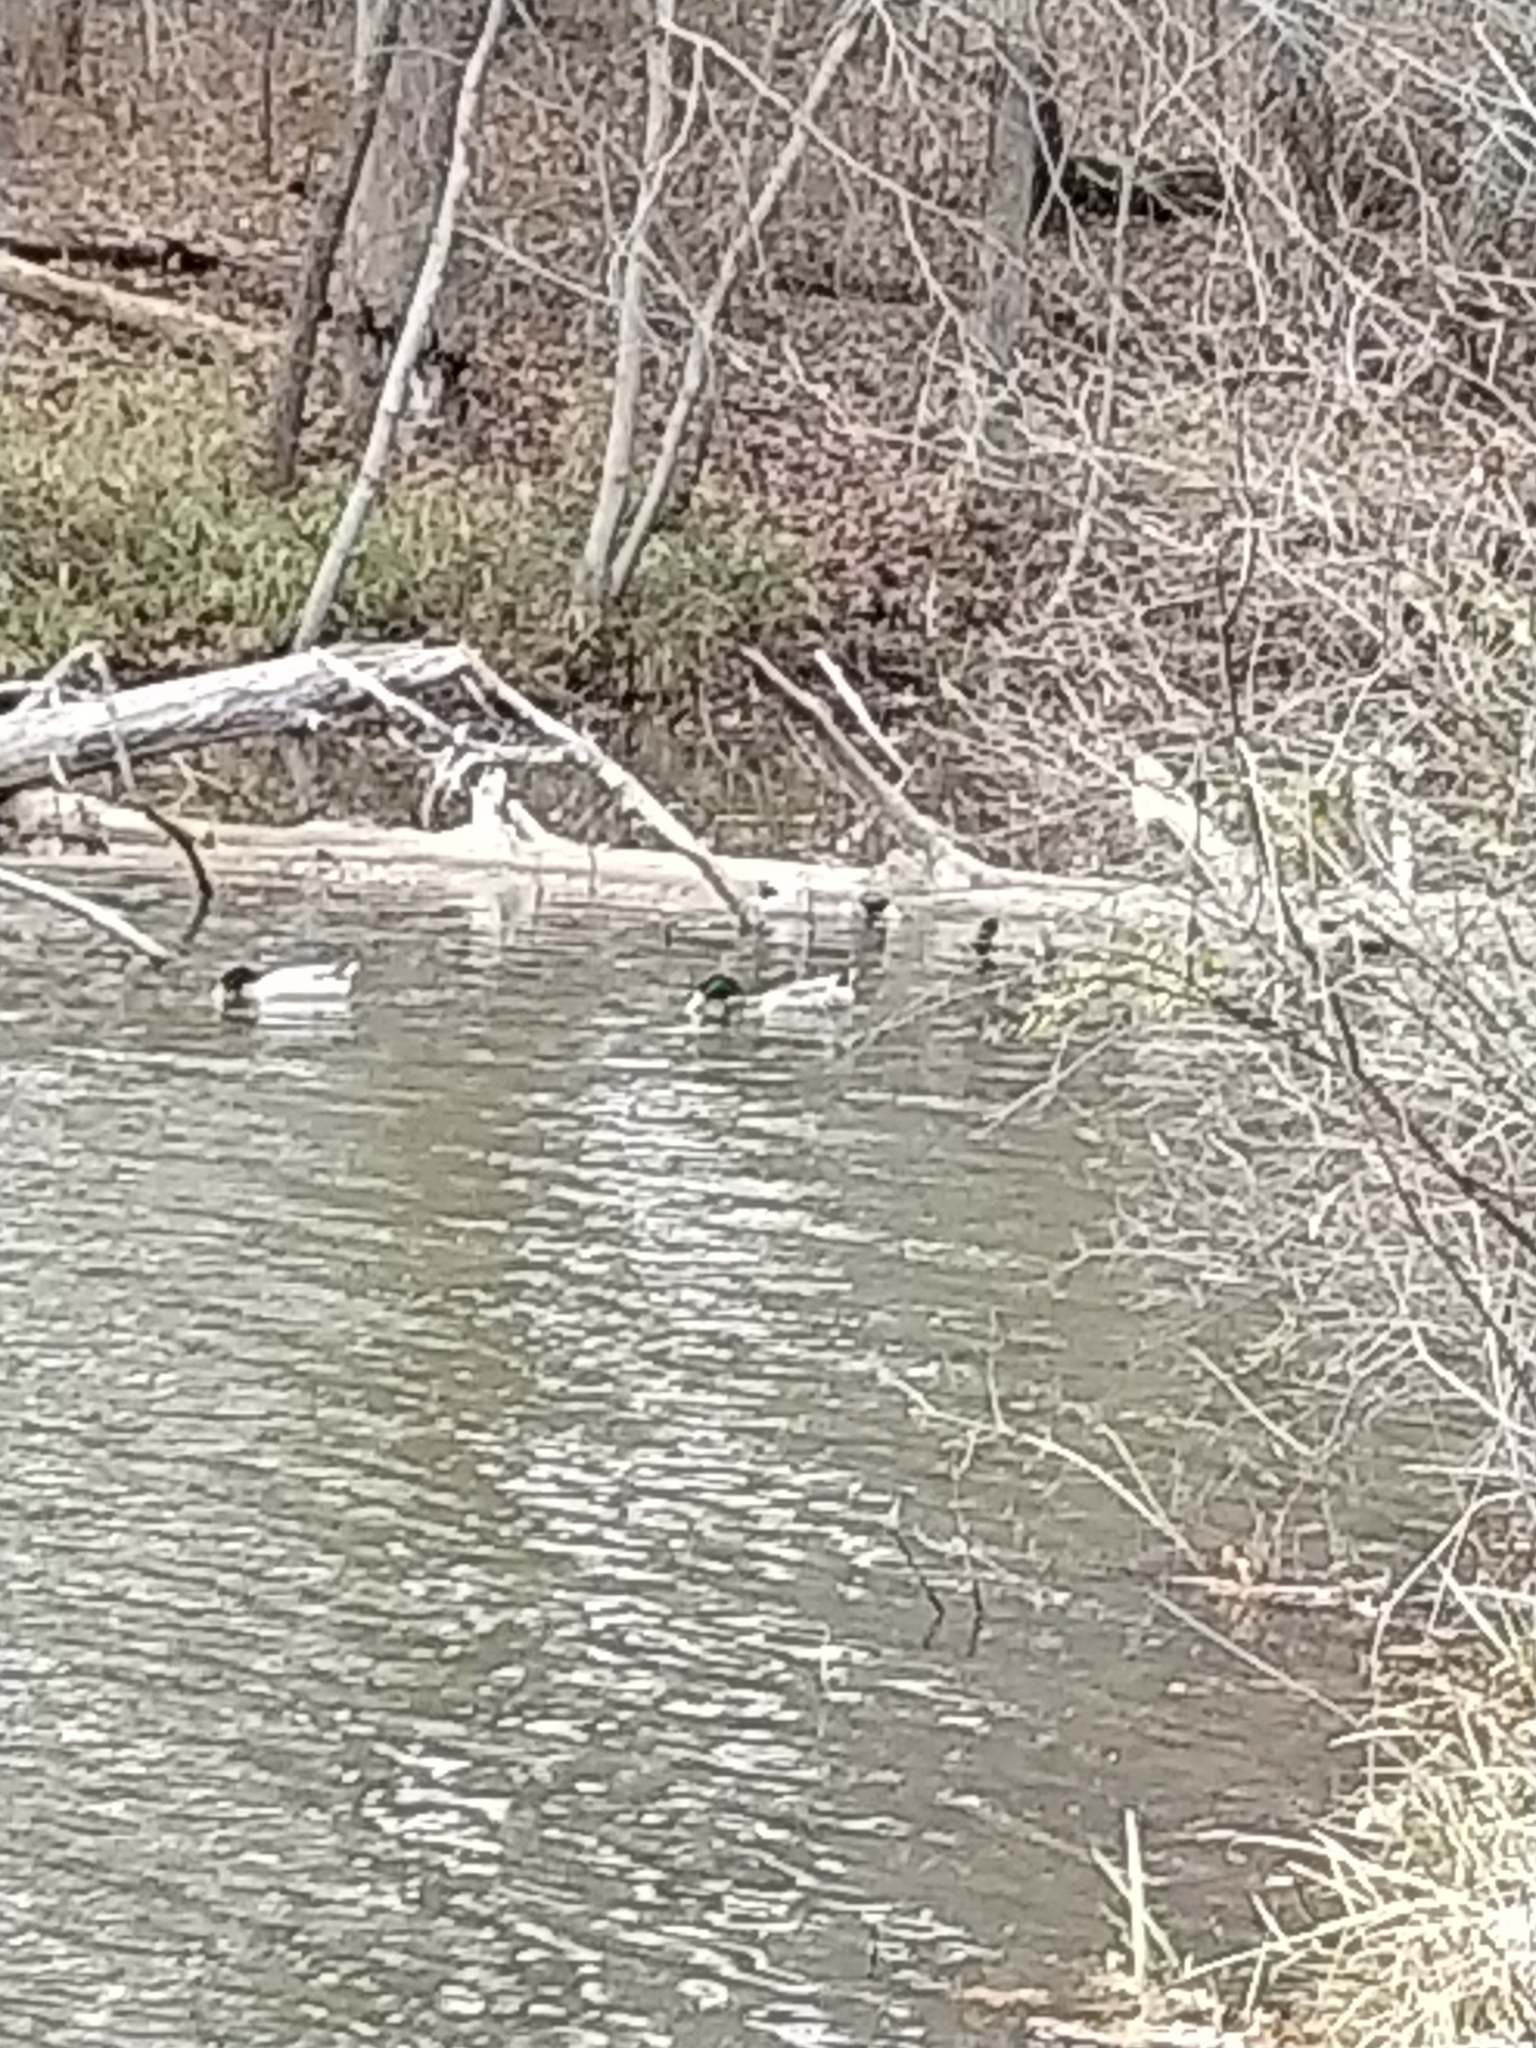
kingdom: Animalia
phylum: Chordata
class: Aves
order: Anseriformes
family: Anatidae
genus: Anas
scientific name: Anas platyrhynchos
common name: Mallard
